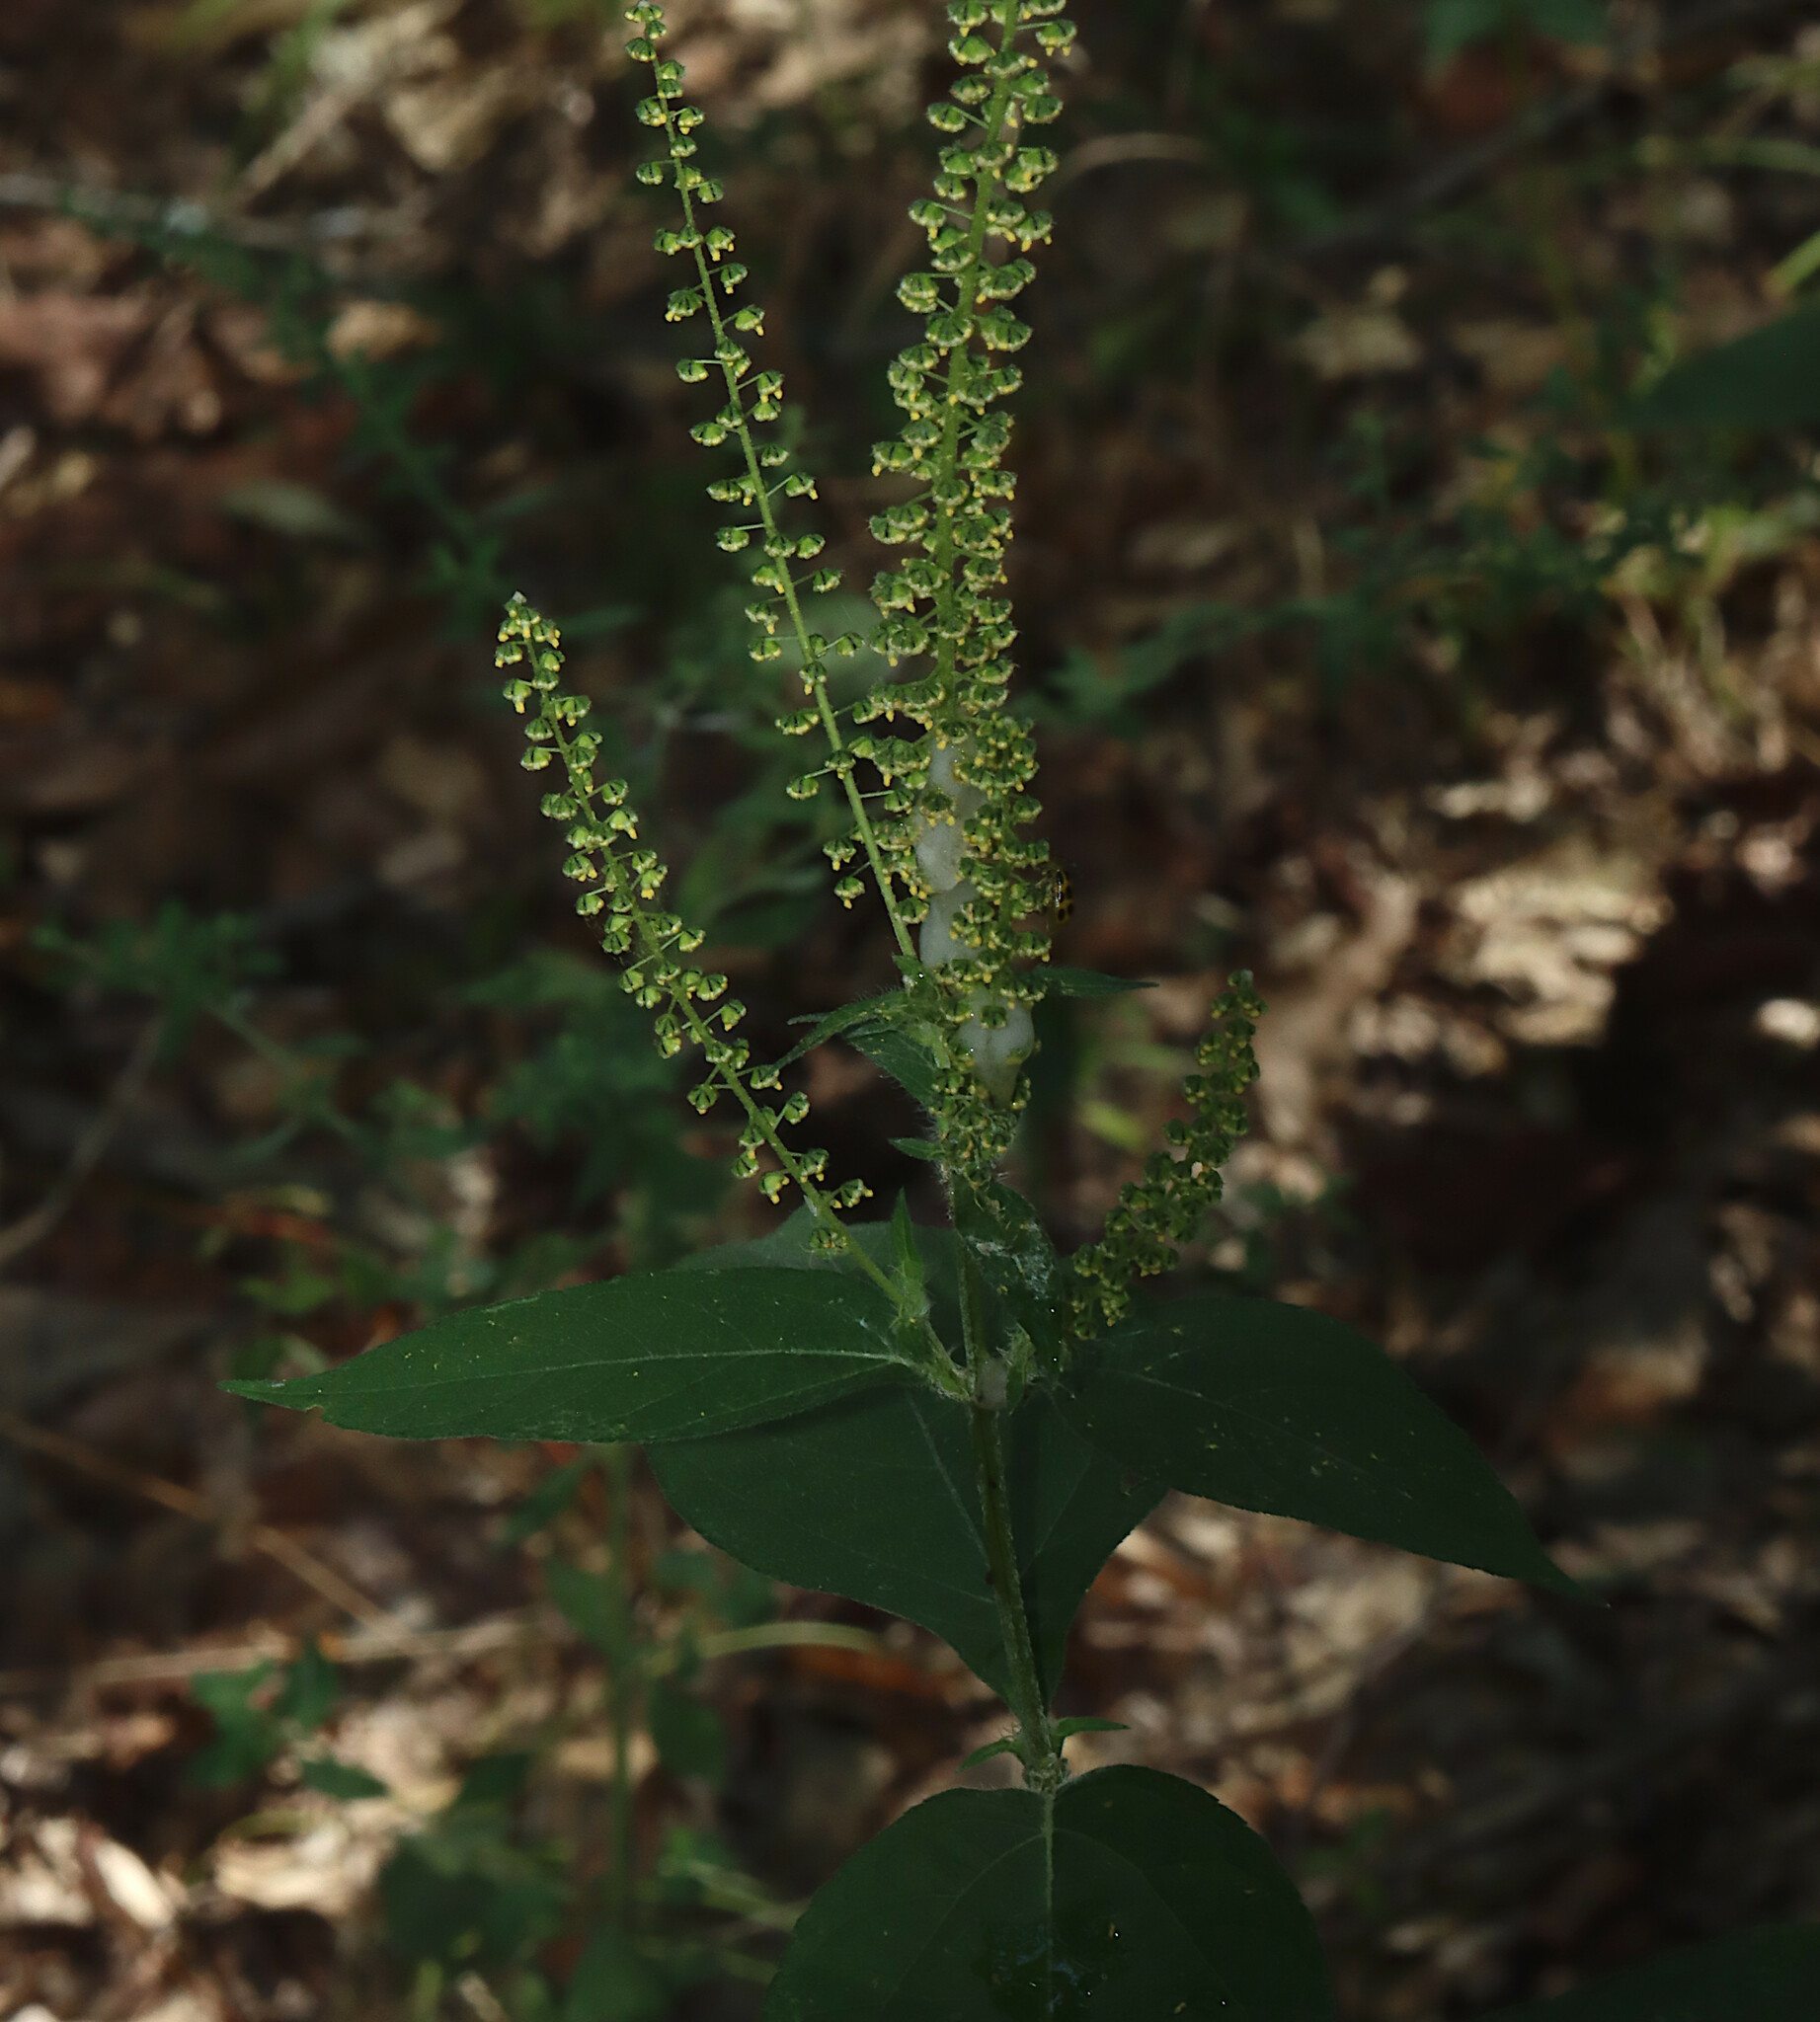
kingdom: Plantae
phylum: Tracheophyta
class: Magnoliopsida
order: Asterales
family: Asteraceae
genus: Ambrosia
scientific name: Ambrosia trifida
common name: Giant ragweed
